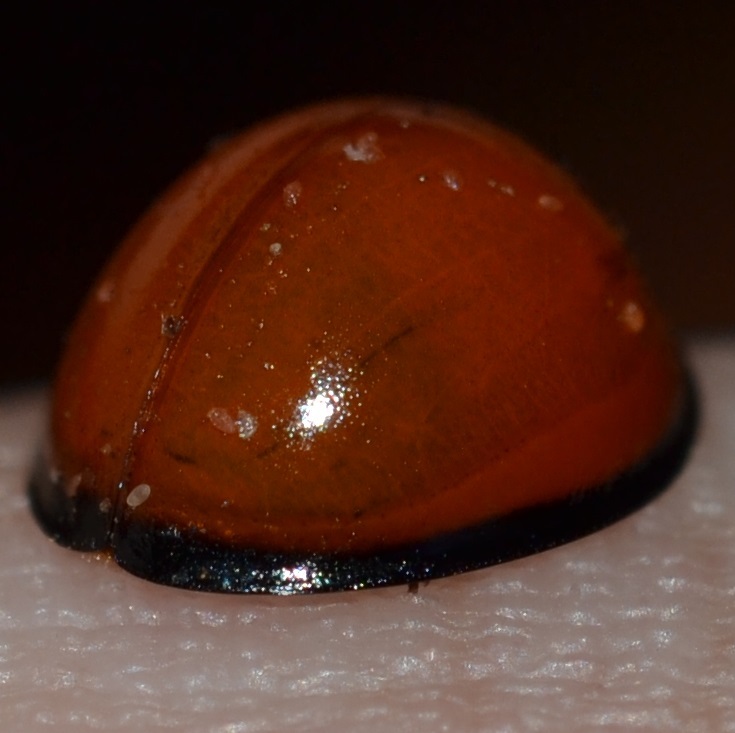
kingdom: Animalia
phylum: Arthropoda
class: Insecta
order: Coleoptera
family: Coccinellidae
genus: Chilocorus
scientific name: Chilocorus circumdatus
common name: Lady beetle
